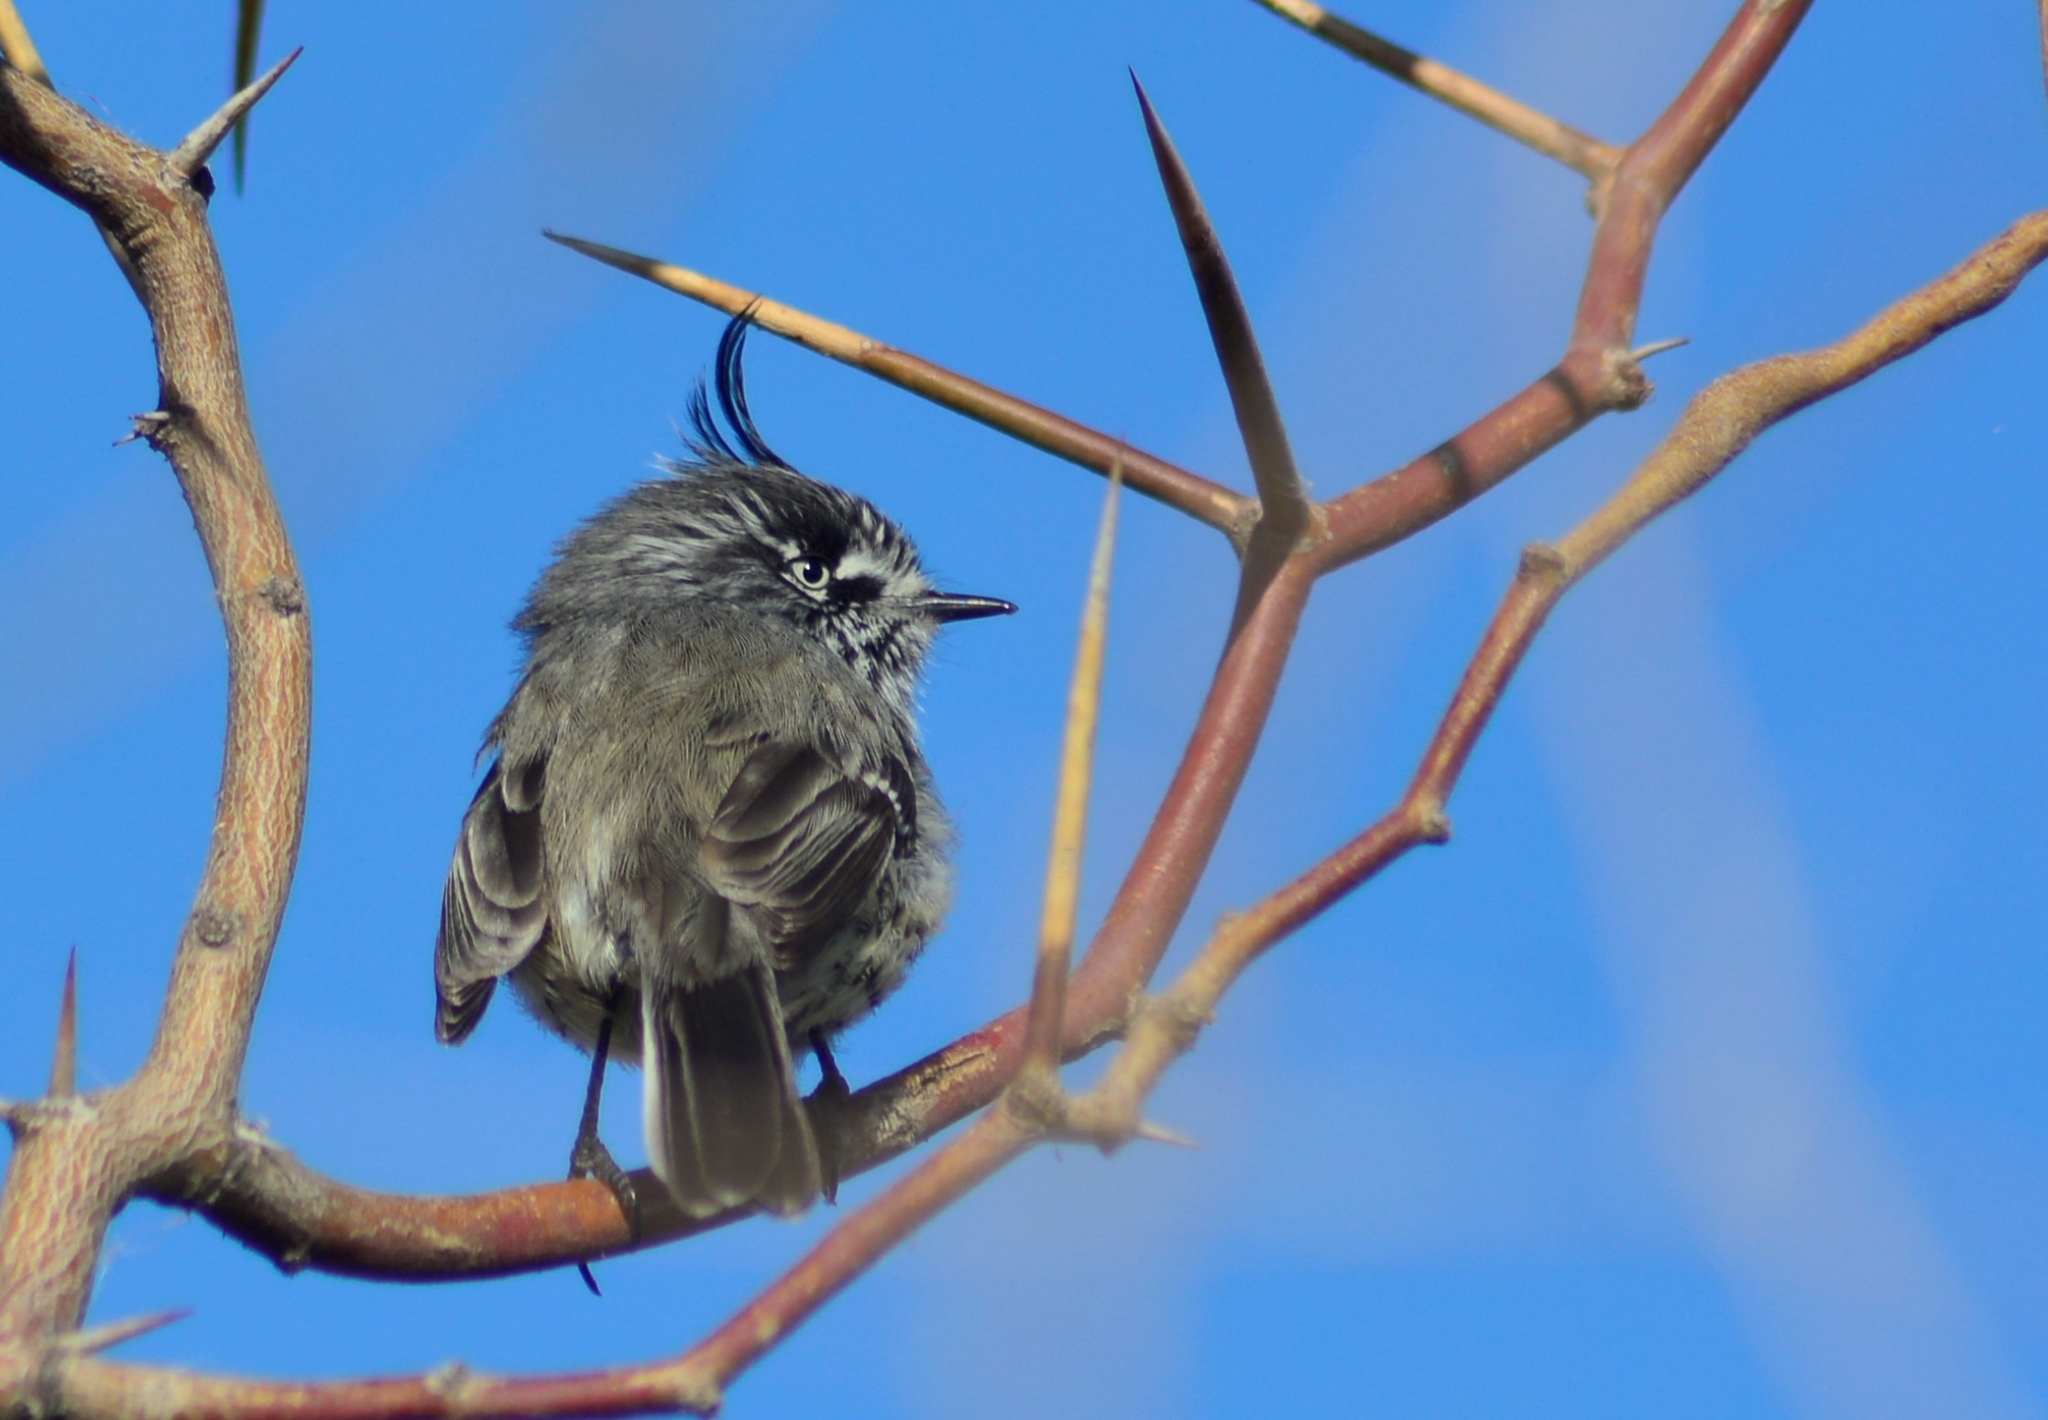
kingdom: Animalia
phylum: Chordata
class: Aves
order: Passeriformes
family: Tyrannidae
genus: Anairetes
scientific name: Anairetes parulus
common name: Tufted tit-tyrant
